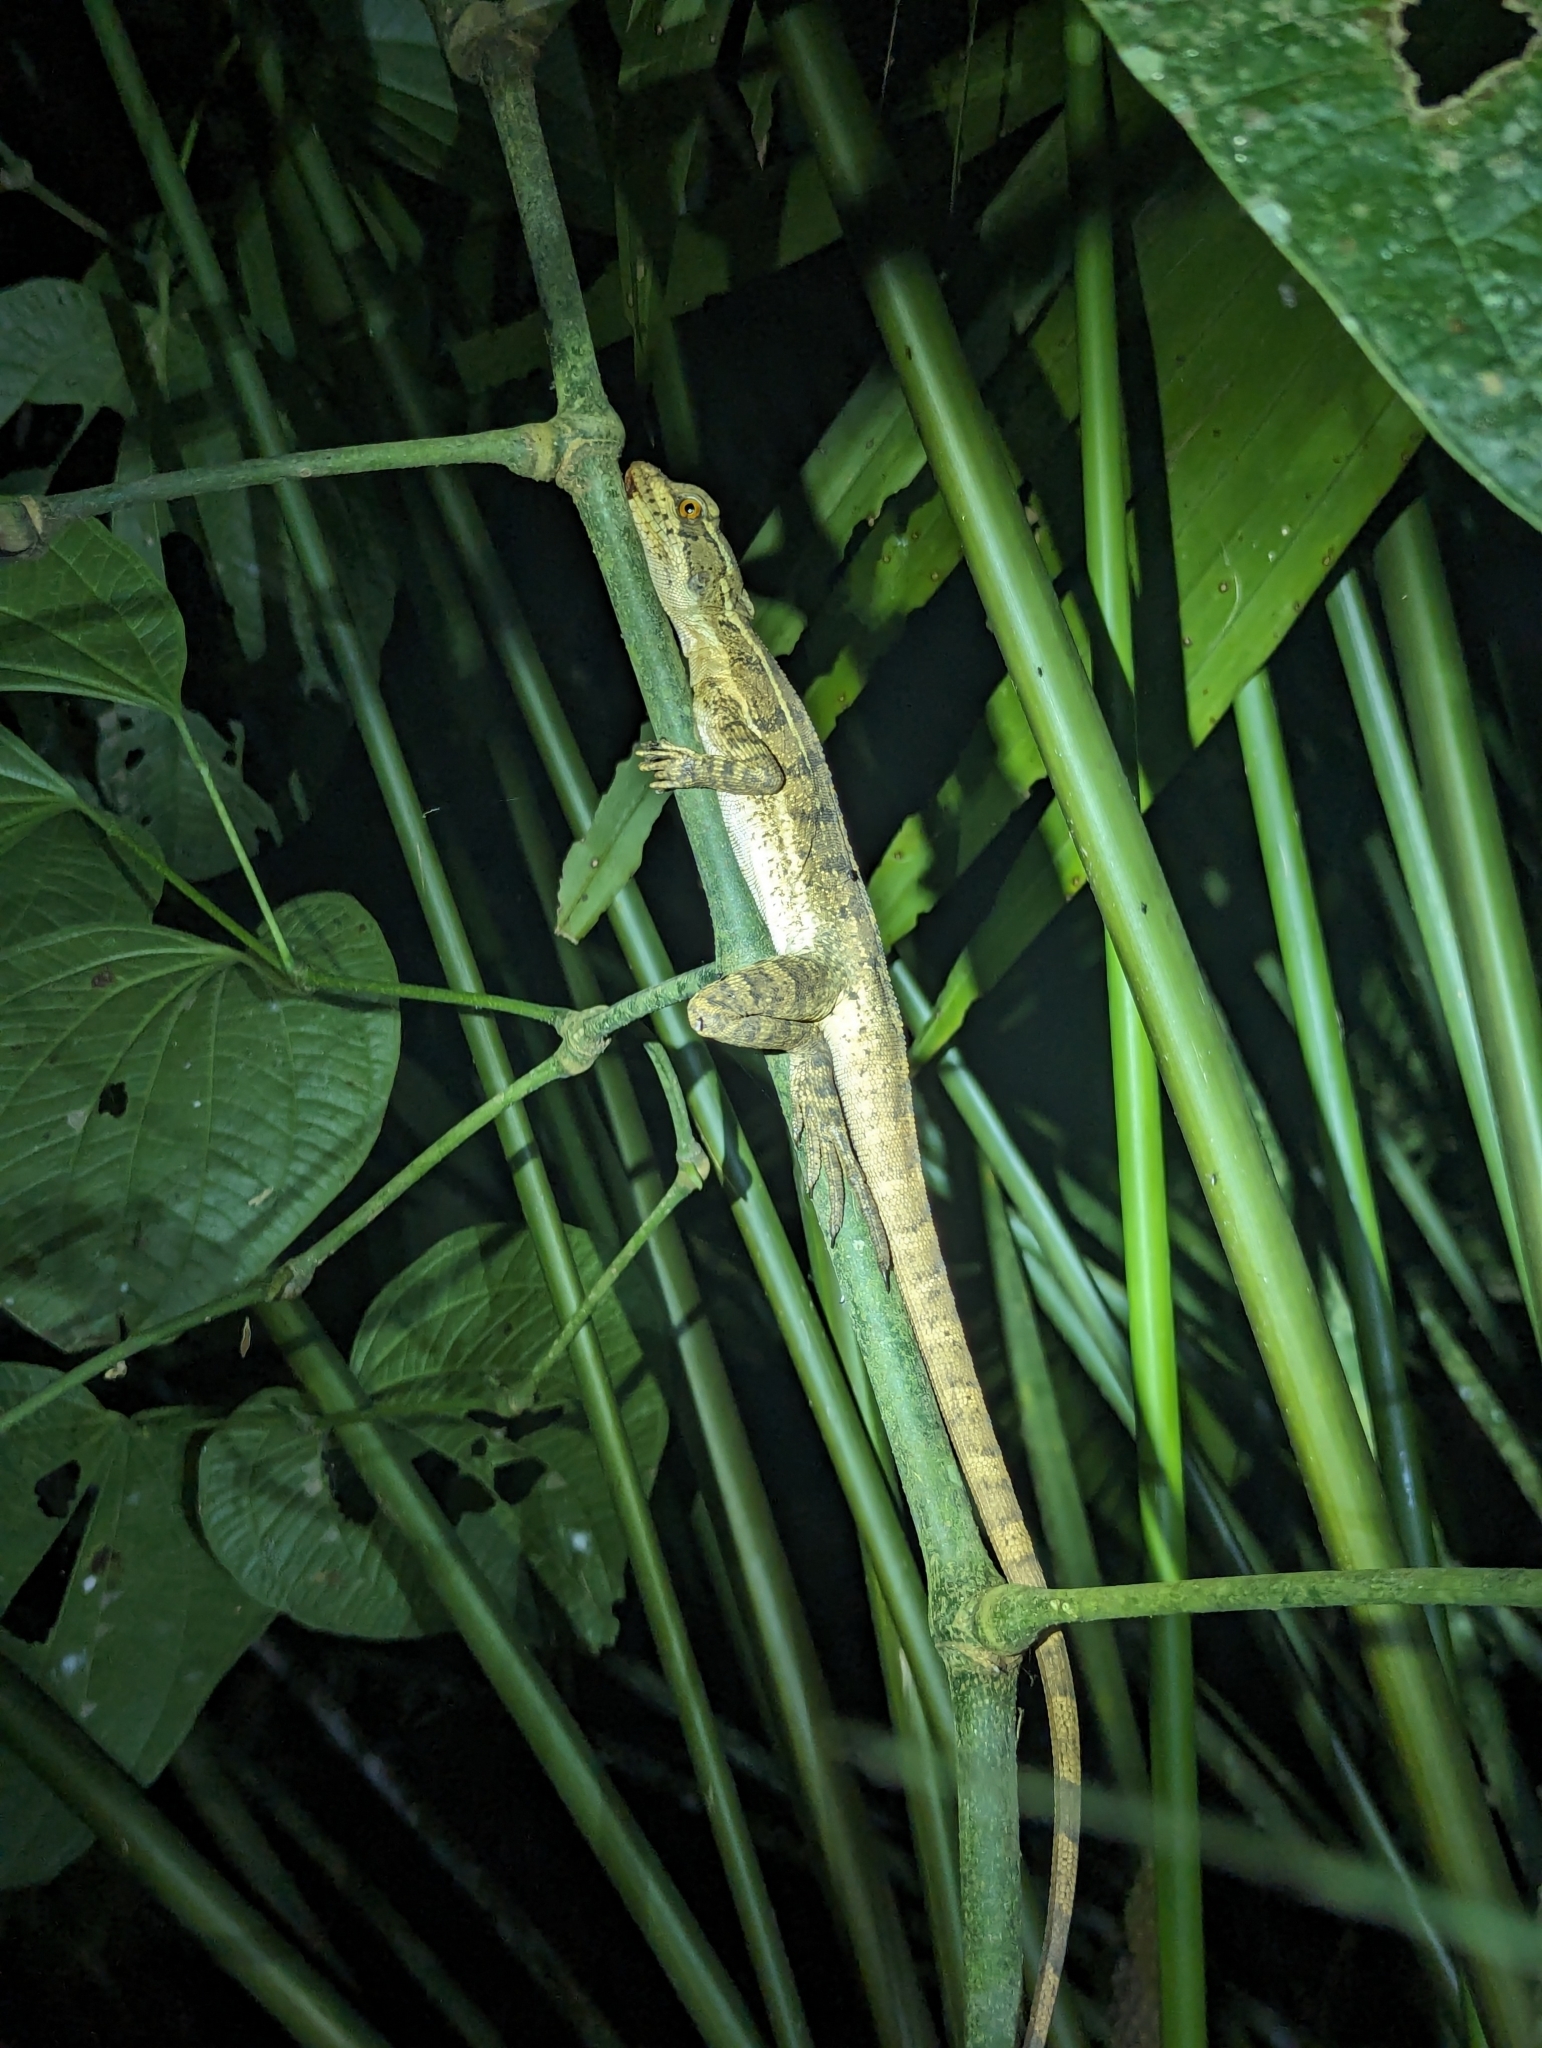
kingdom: Animalia
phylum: Chordata
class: Squamata
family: Corytophanidae
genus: Basiliscus
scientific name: Basiliscus basiliscus
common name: Common basilisk
